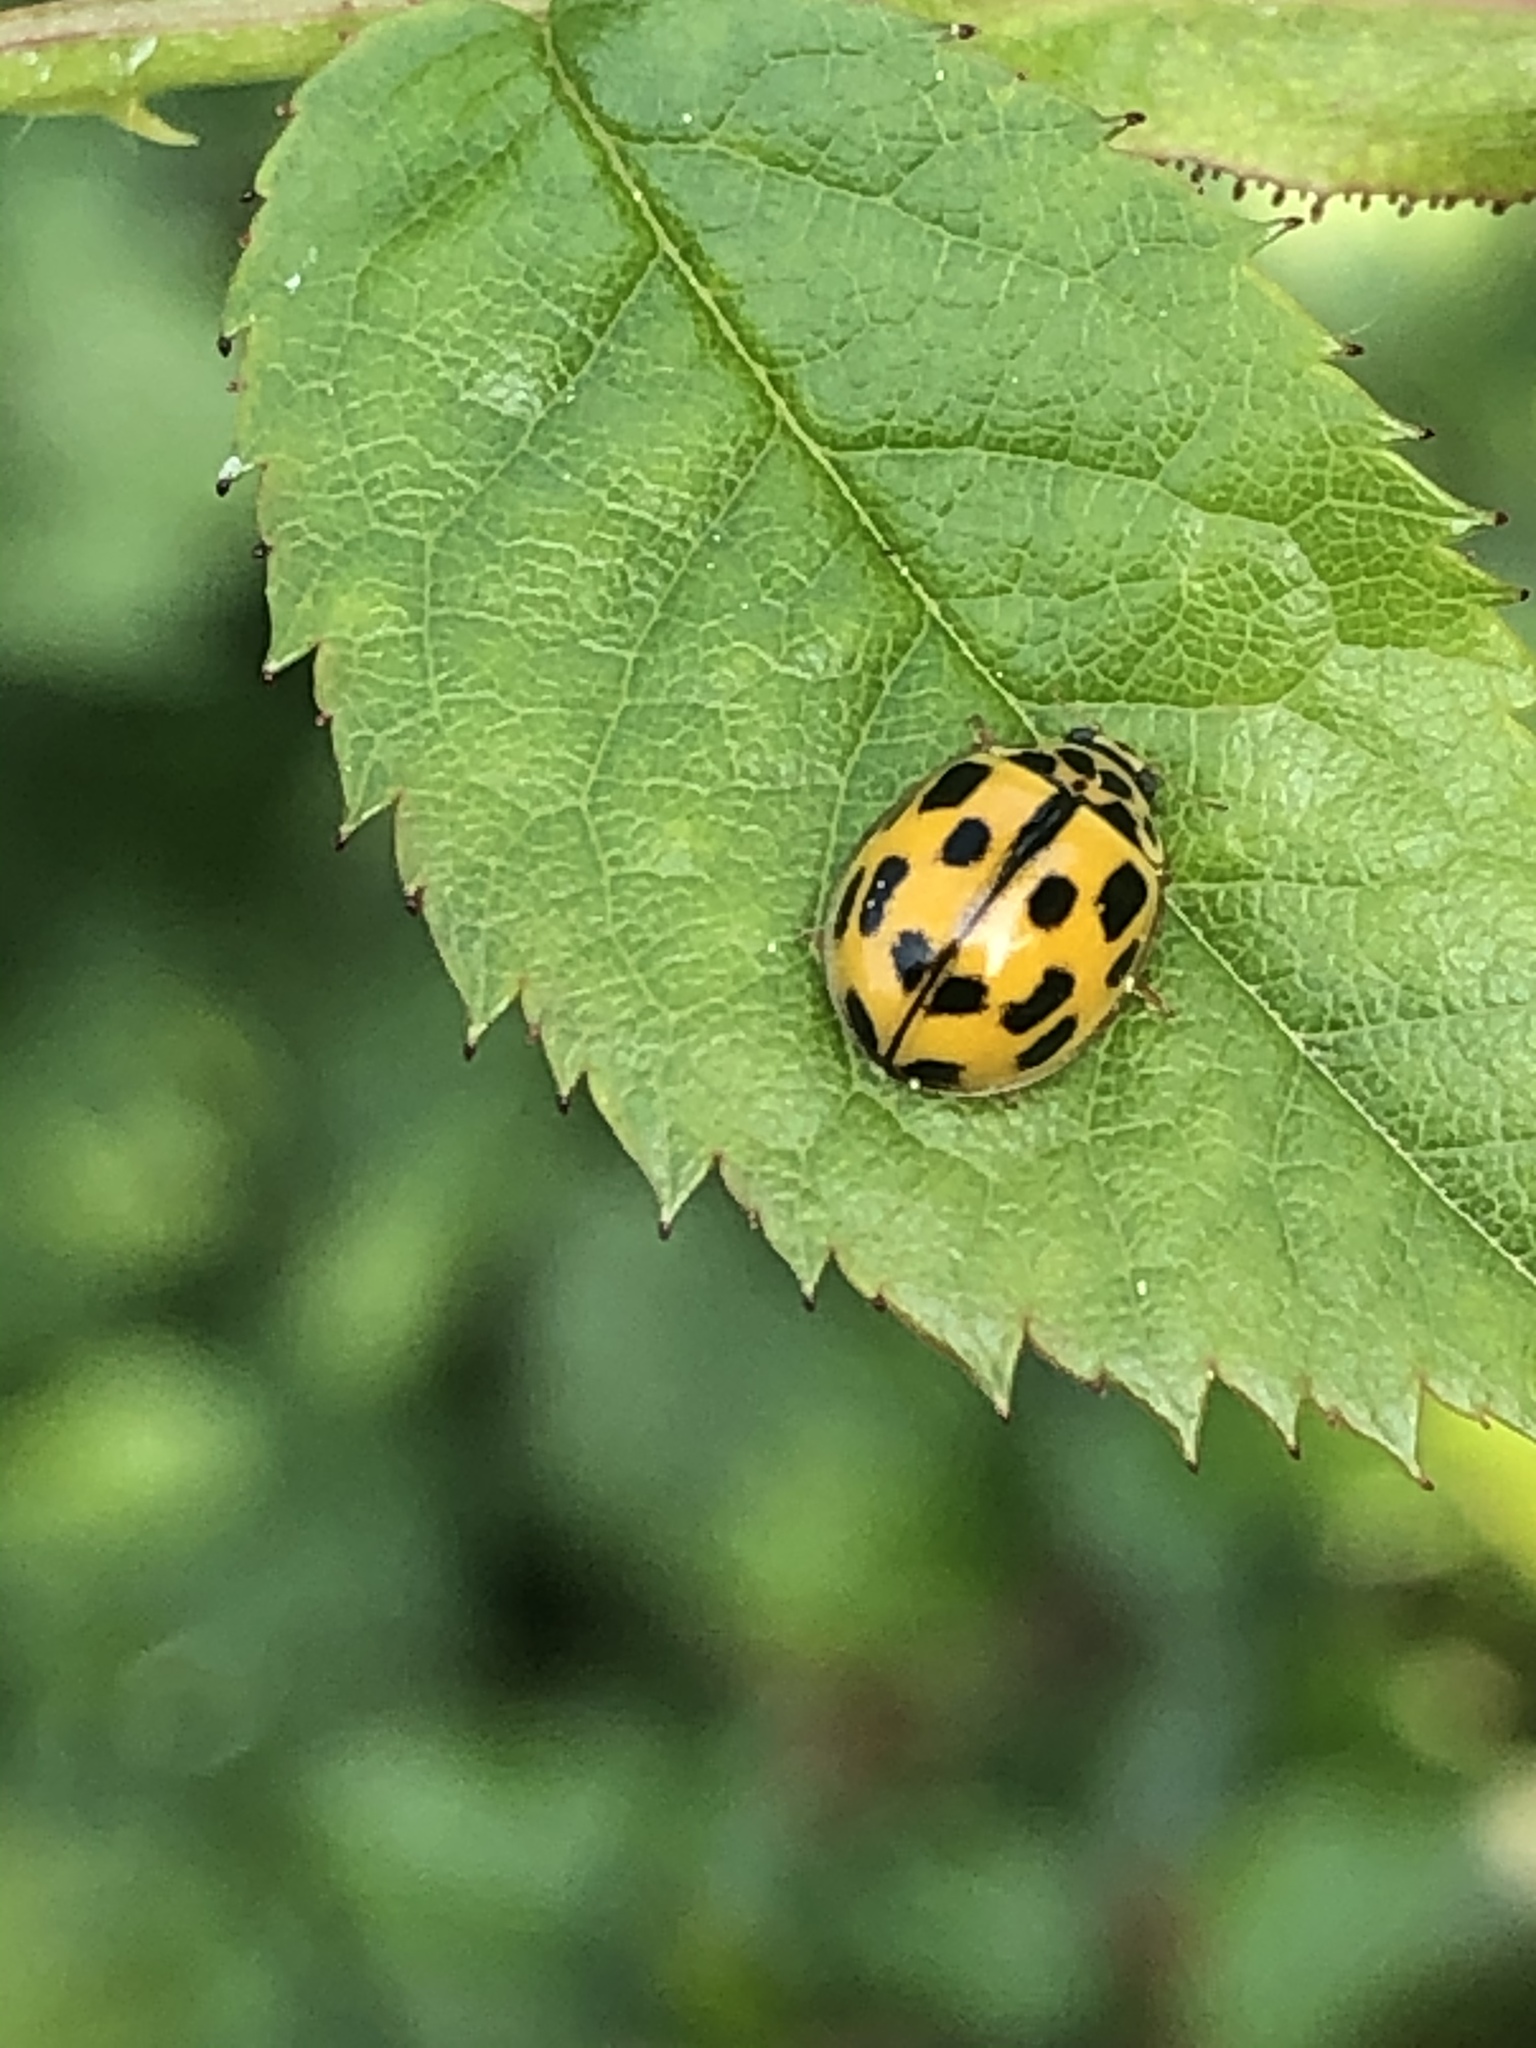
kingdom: Animalia
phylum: Arthropoda
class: Insecta
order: Coleoptera
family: Coccinellidae
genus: Propylaea
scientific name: Propylaea quatuordecimpunctata
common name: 14-spotted ladybird beetle
